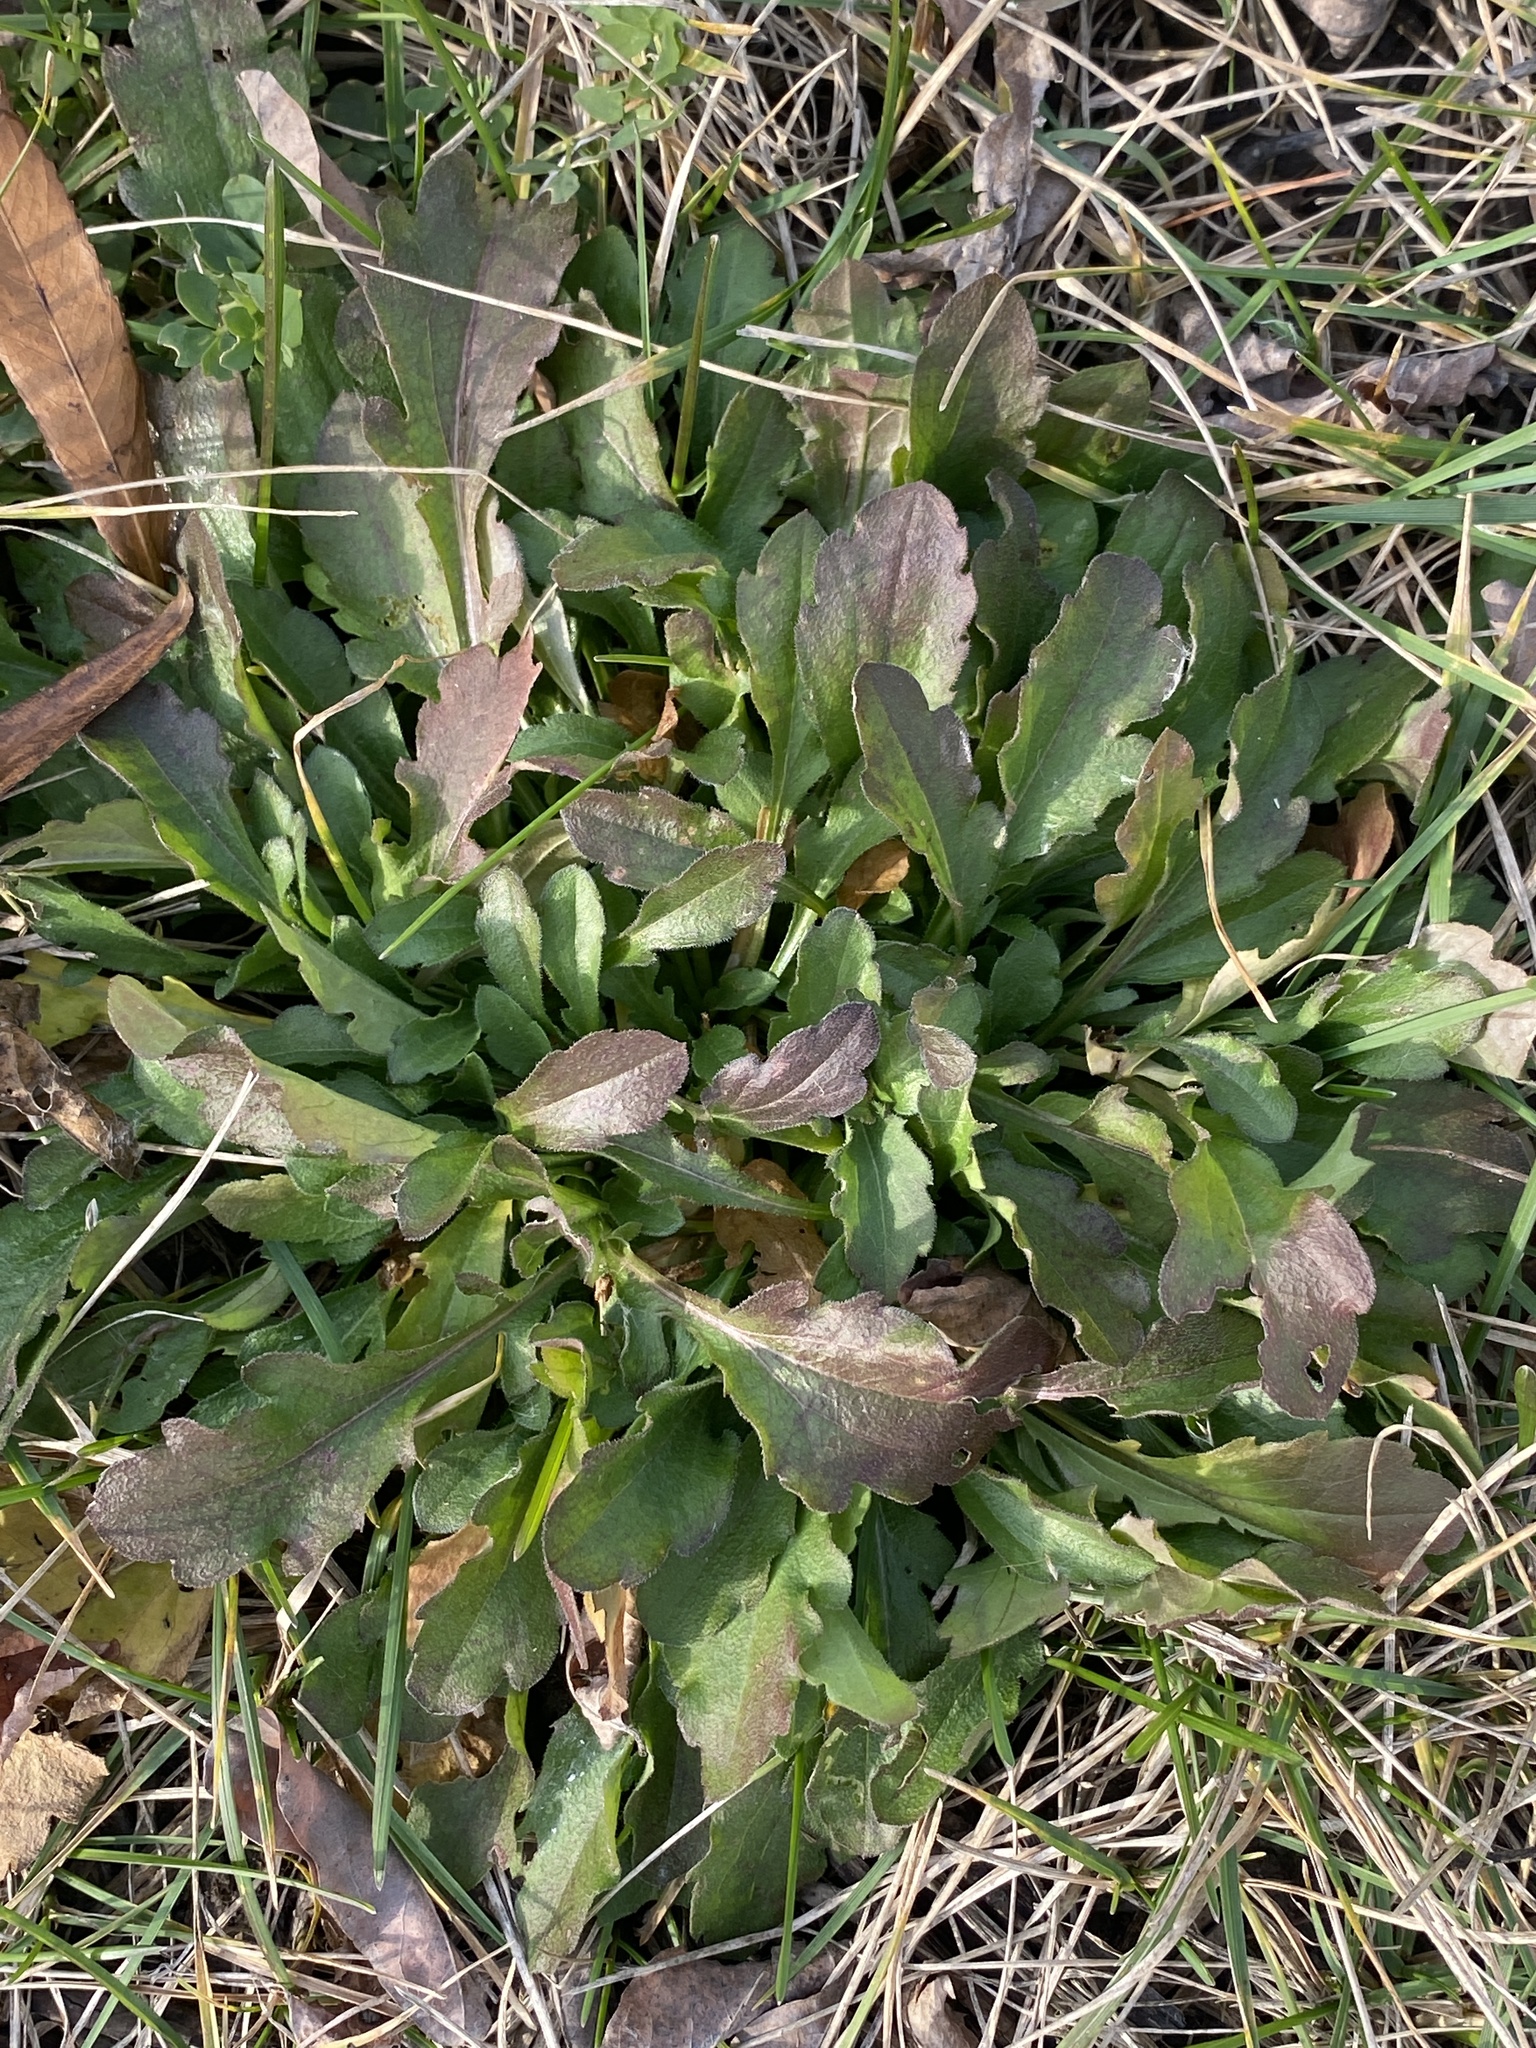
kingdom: Plantae
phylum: Tracheophyta
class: Magnoliopsida
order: Asterales
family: Asteraceae
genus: Erigeron
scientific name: Erigeron canadensis
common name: Canadian fleabane
